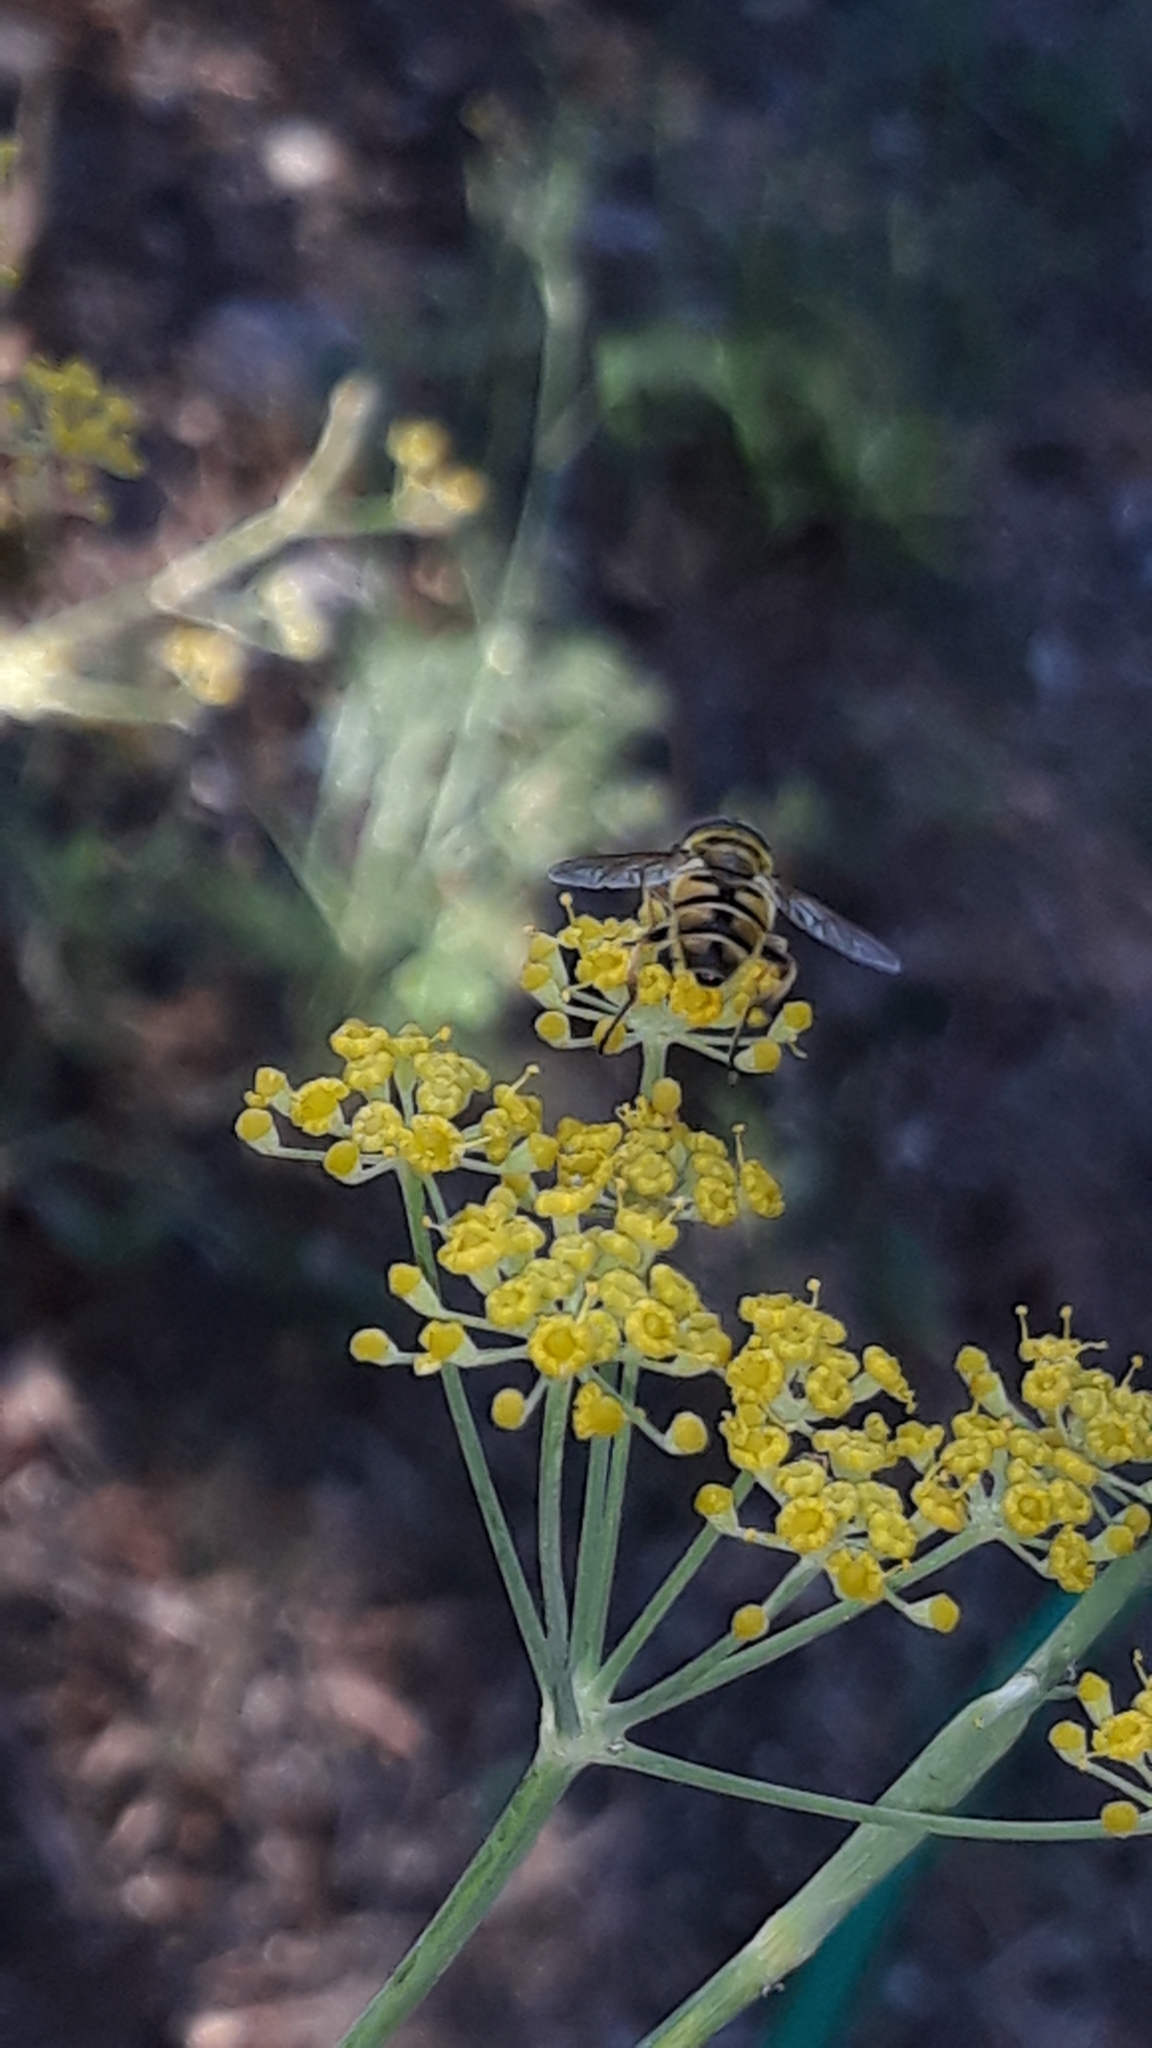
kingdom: Animalia
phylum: Arthropoda
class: Insecta
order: Diptera
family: Syrphidae
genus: Myathropa
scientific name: Myathropa florea
